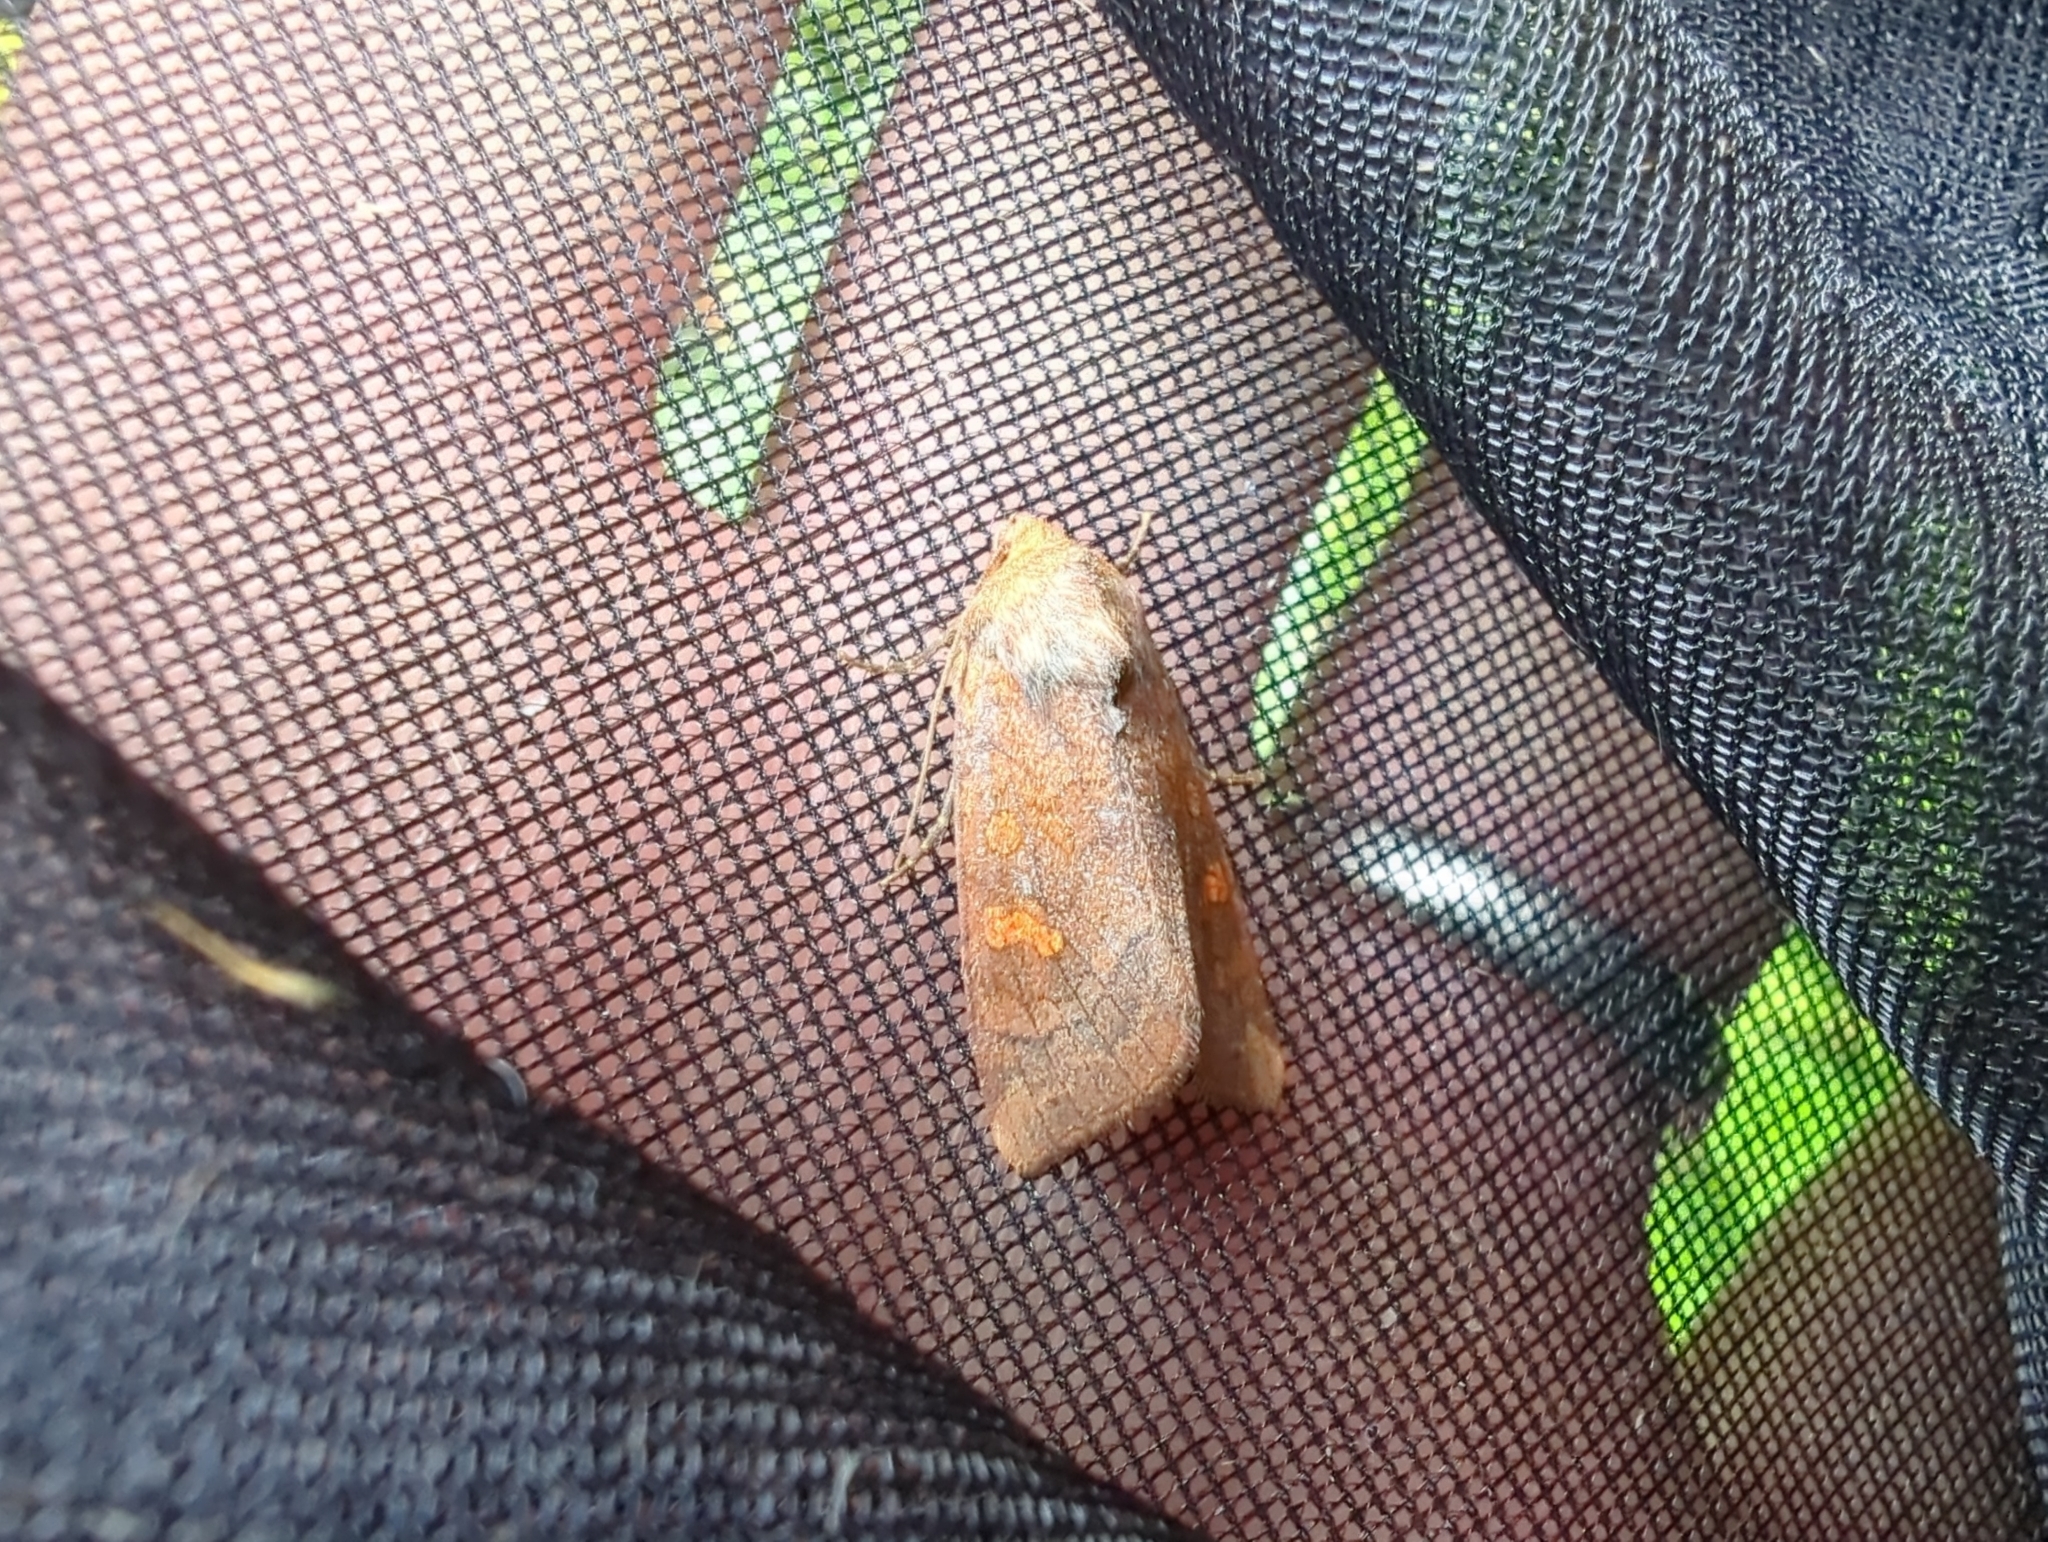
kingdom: Animalia
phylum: Arthropoda
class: Insecta
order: Lepidoptera
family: Noctuidae
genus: Amphipoea
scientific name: Amphipoea americana
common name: American ear moth
